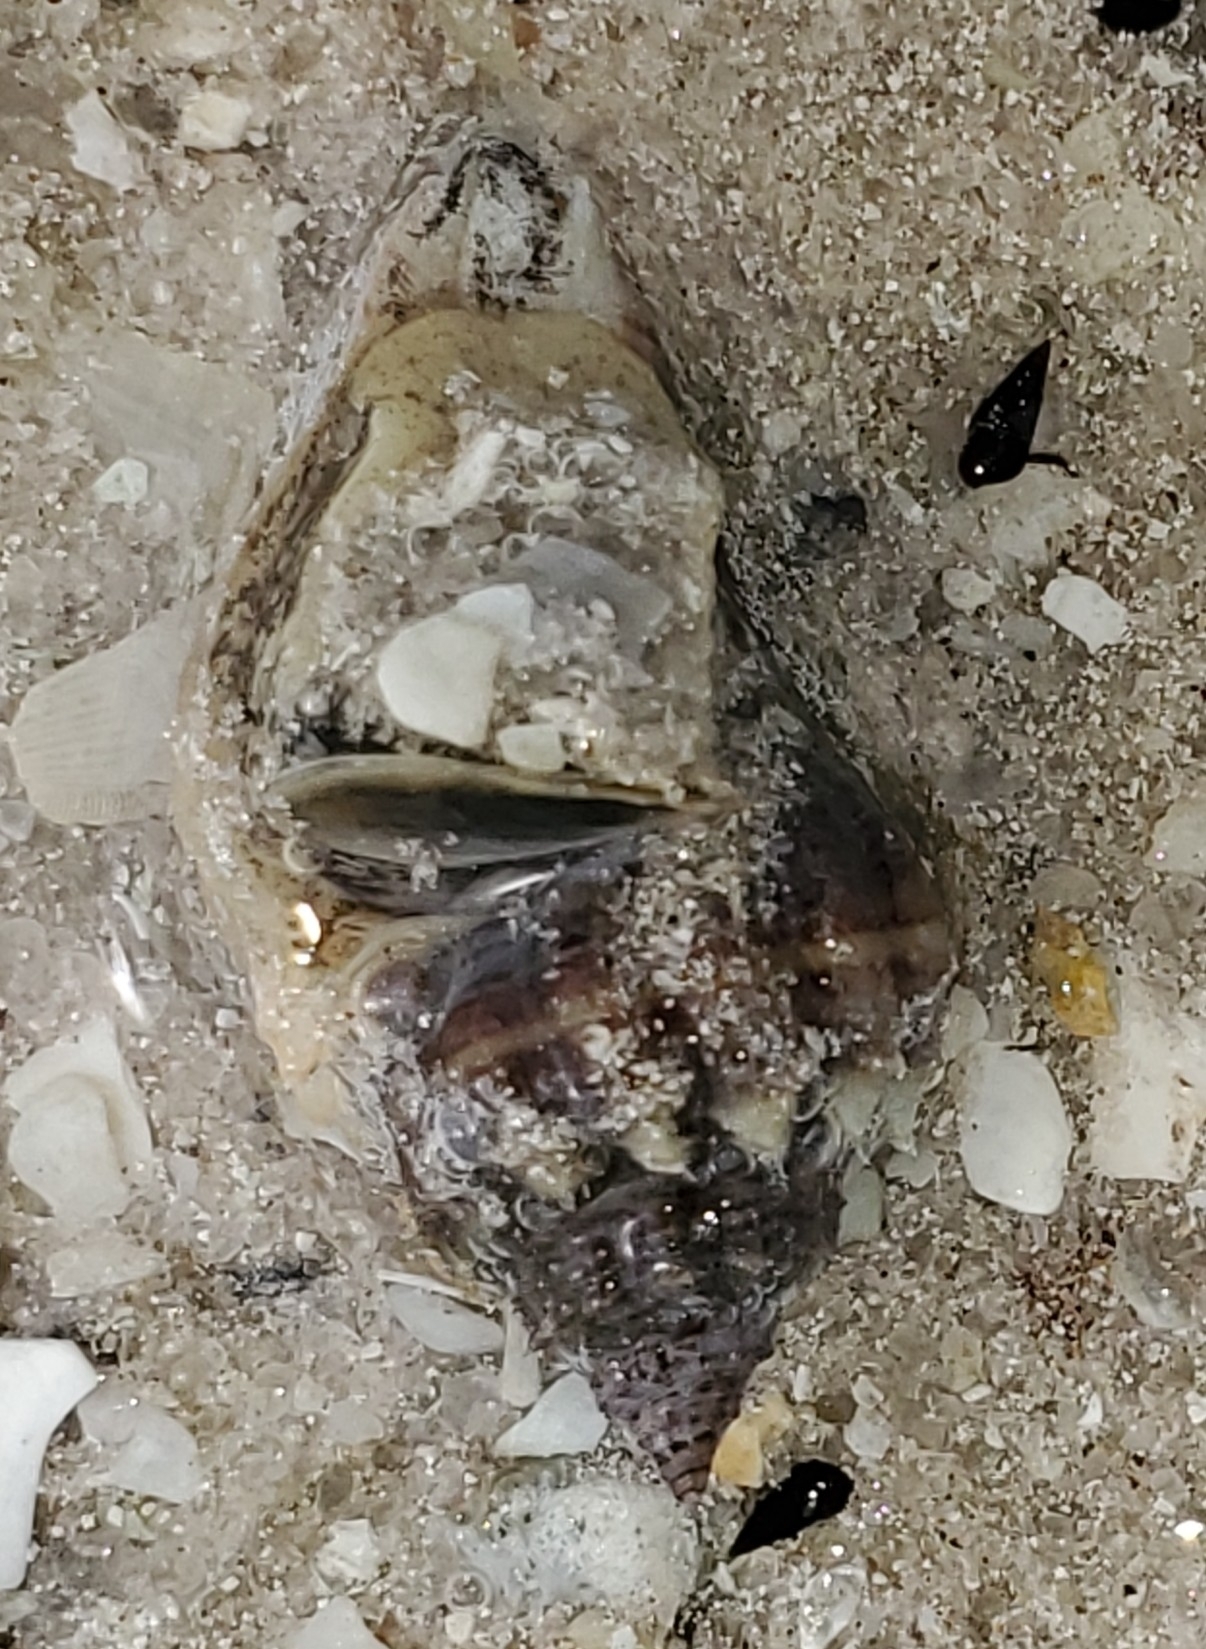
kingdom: Animalia
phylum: Mollusca
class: Gastropoda
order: Neogastropoda
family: Melongenidae
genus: Melongena
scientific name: Melongena corona
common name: American crown conch
